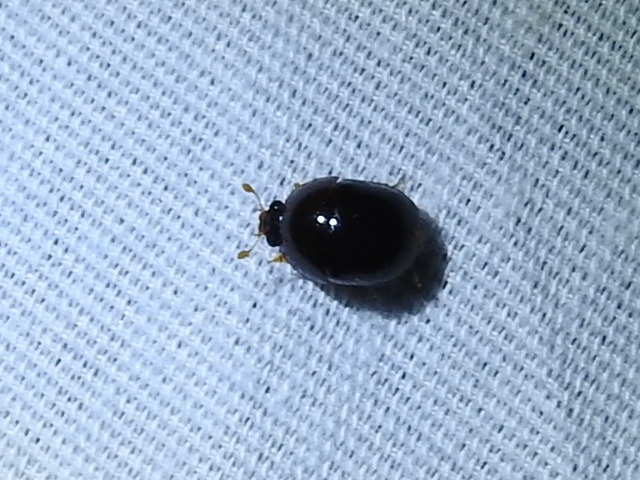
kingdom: Animalia
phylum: Arthropoda
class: Insecta
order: Coleoptera
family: Nitidulidae
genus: Camptodes
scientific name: Camptodes texanus
